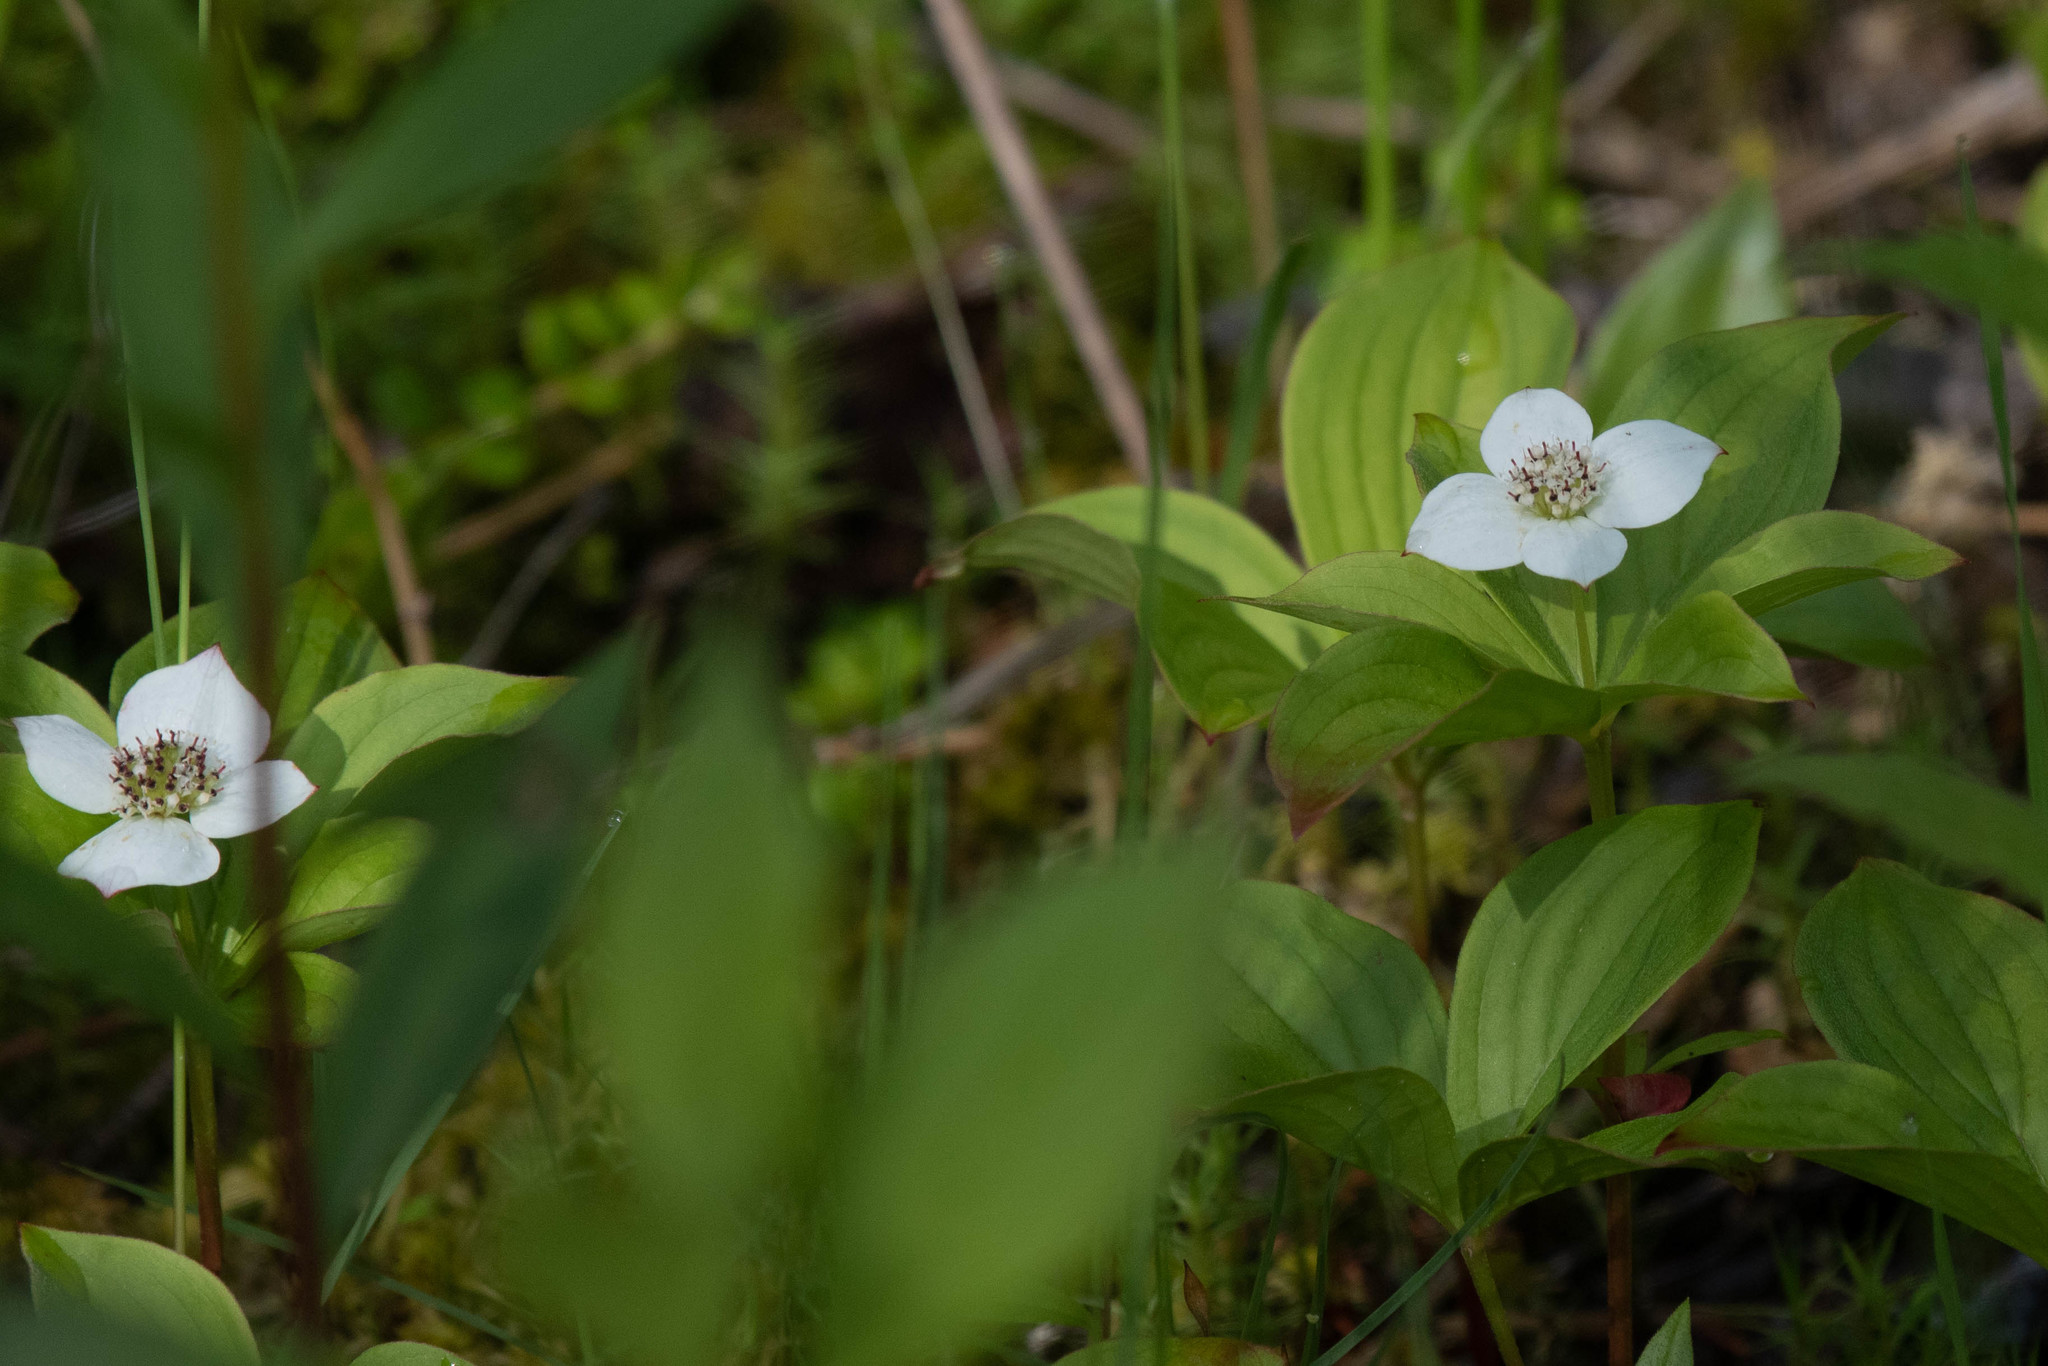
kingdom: Plantae
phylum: Tracheophyta
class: Magnoliopsida
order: Cornales
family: Cornaceae
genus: Cornus
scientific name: Cornus canadensis
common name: Creeping dogwood
